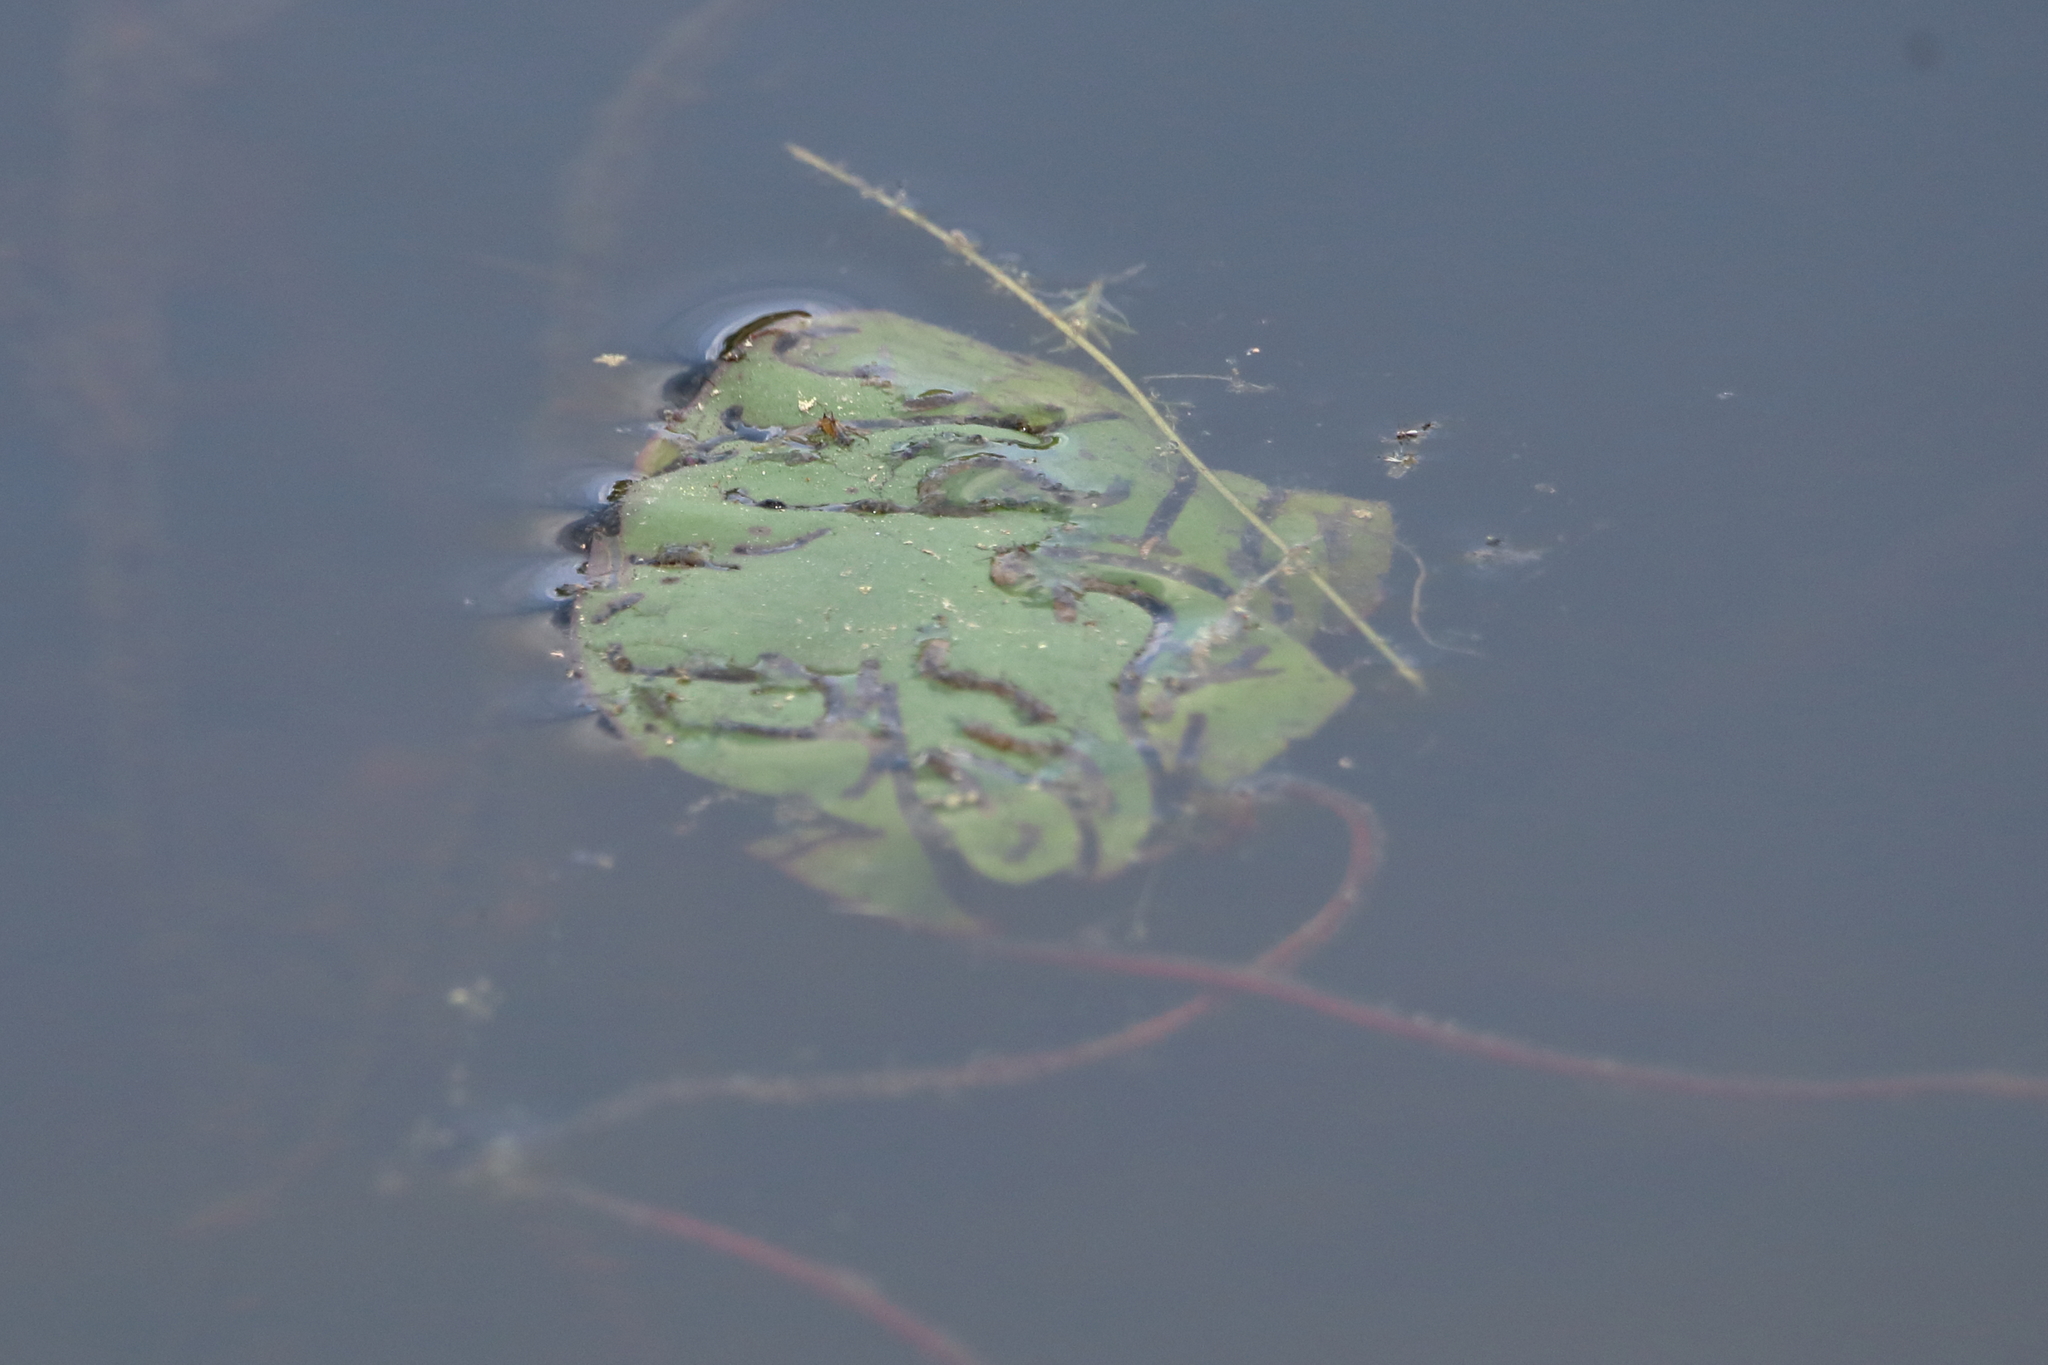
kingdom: Plantae
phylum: Tracheophyta
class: Magnoliopsida
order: Nymphaeales
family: Cabombaceae
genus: Brasenia
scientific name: Brasenia schreberi
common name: Water-shield
